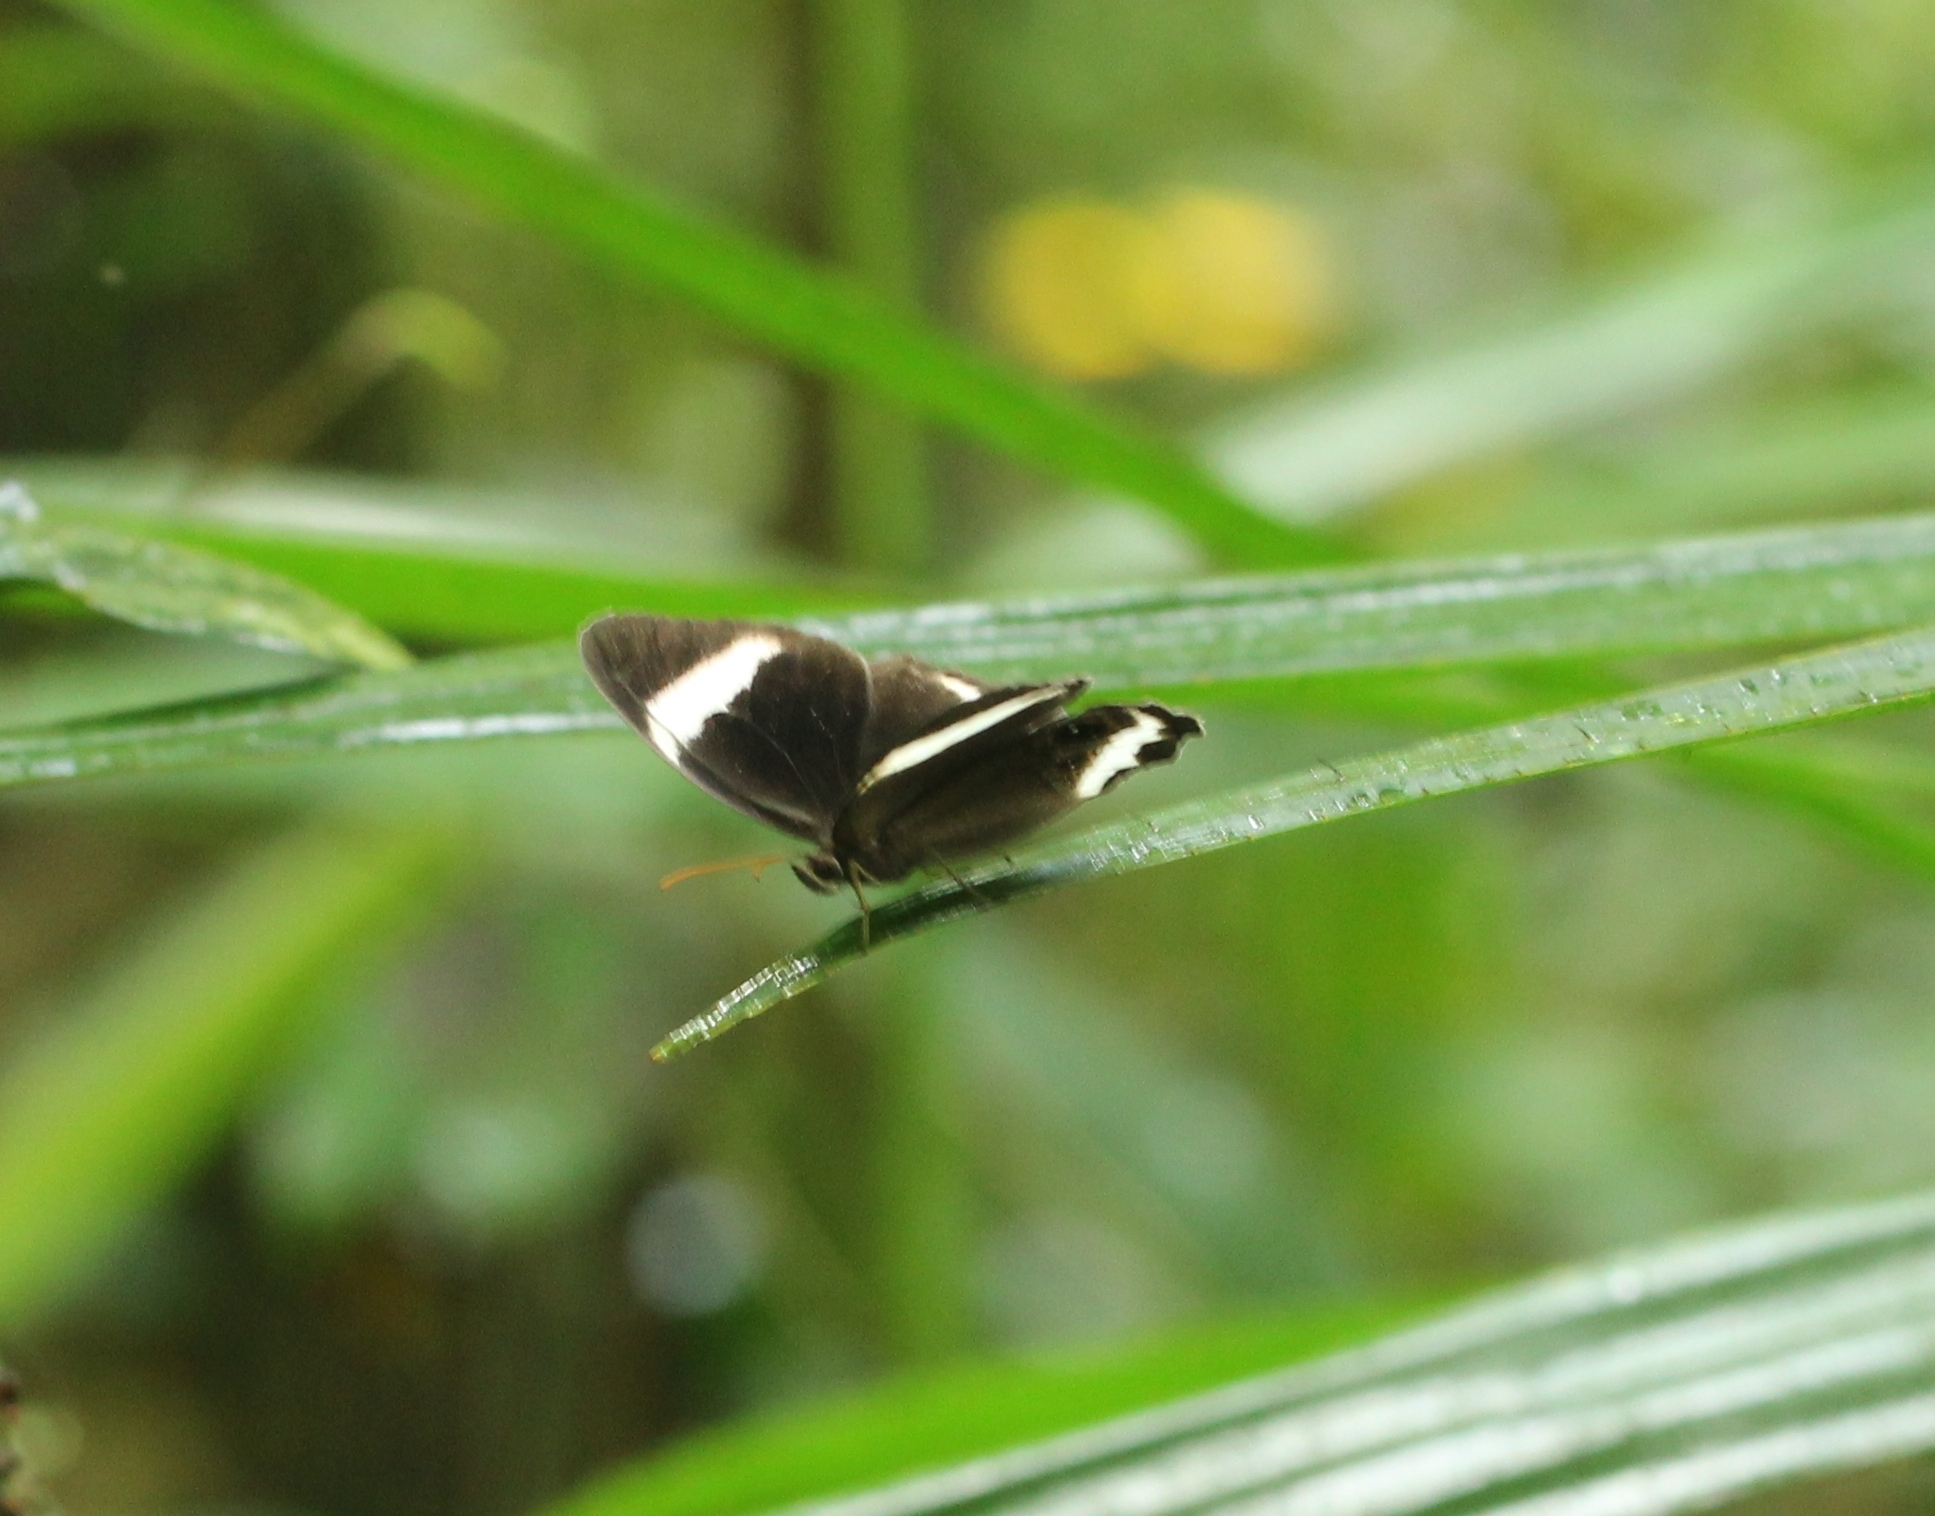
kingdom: Animalia
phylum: Arthropoda
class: Insecta
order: Lepidoptera
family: Nymphalidae
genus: Zipaetis
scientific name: Zipaetis saitis
